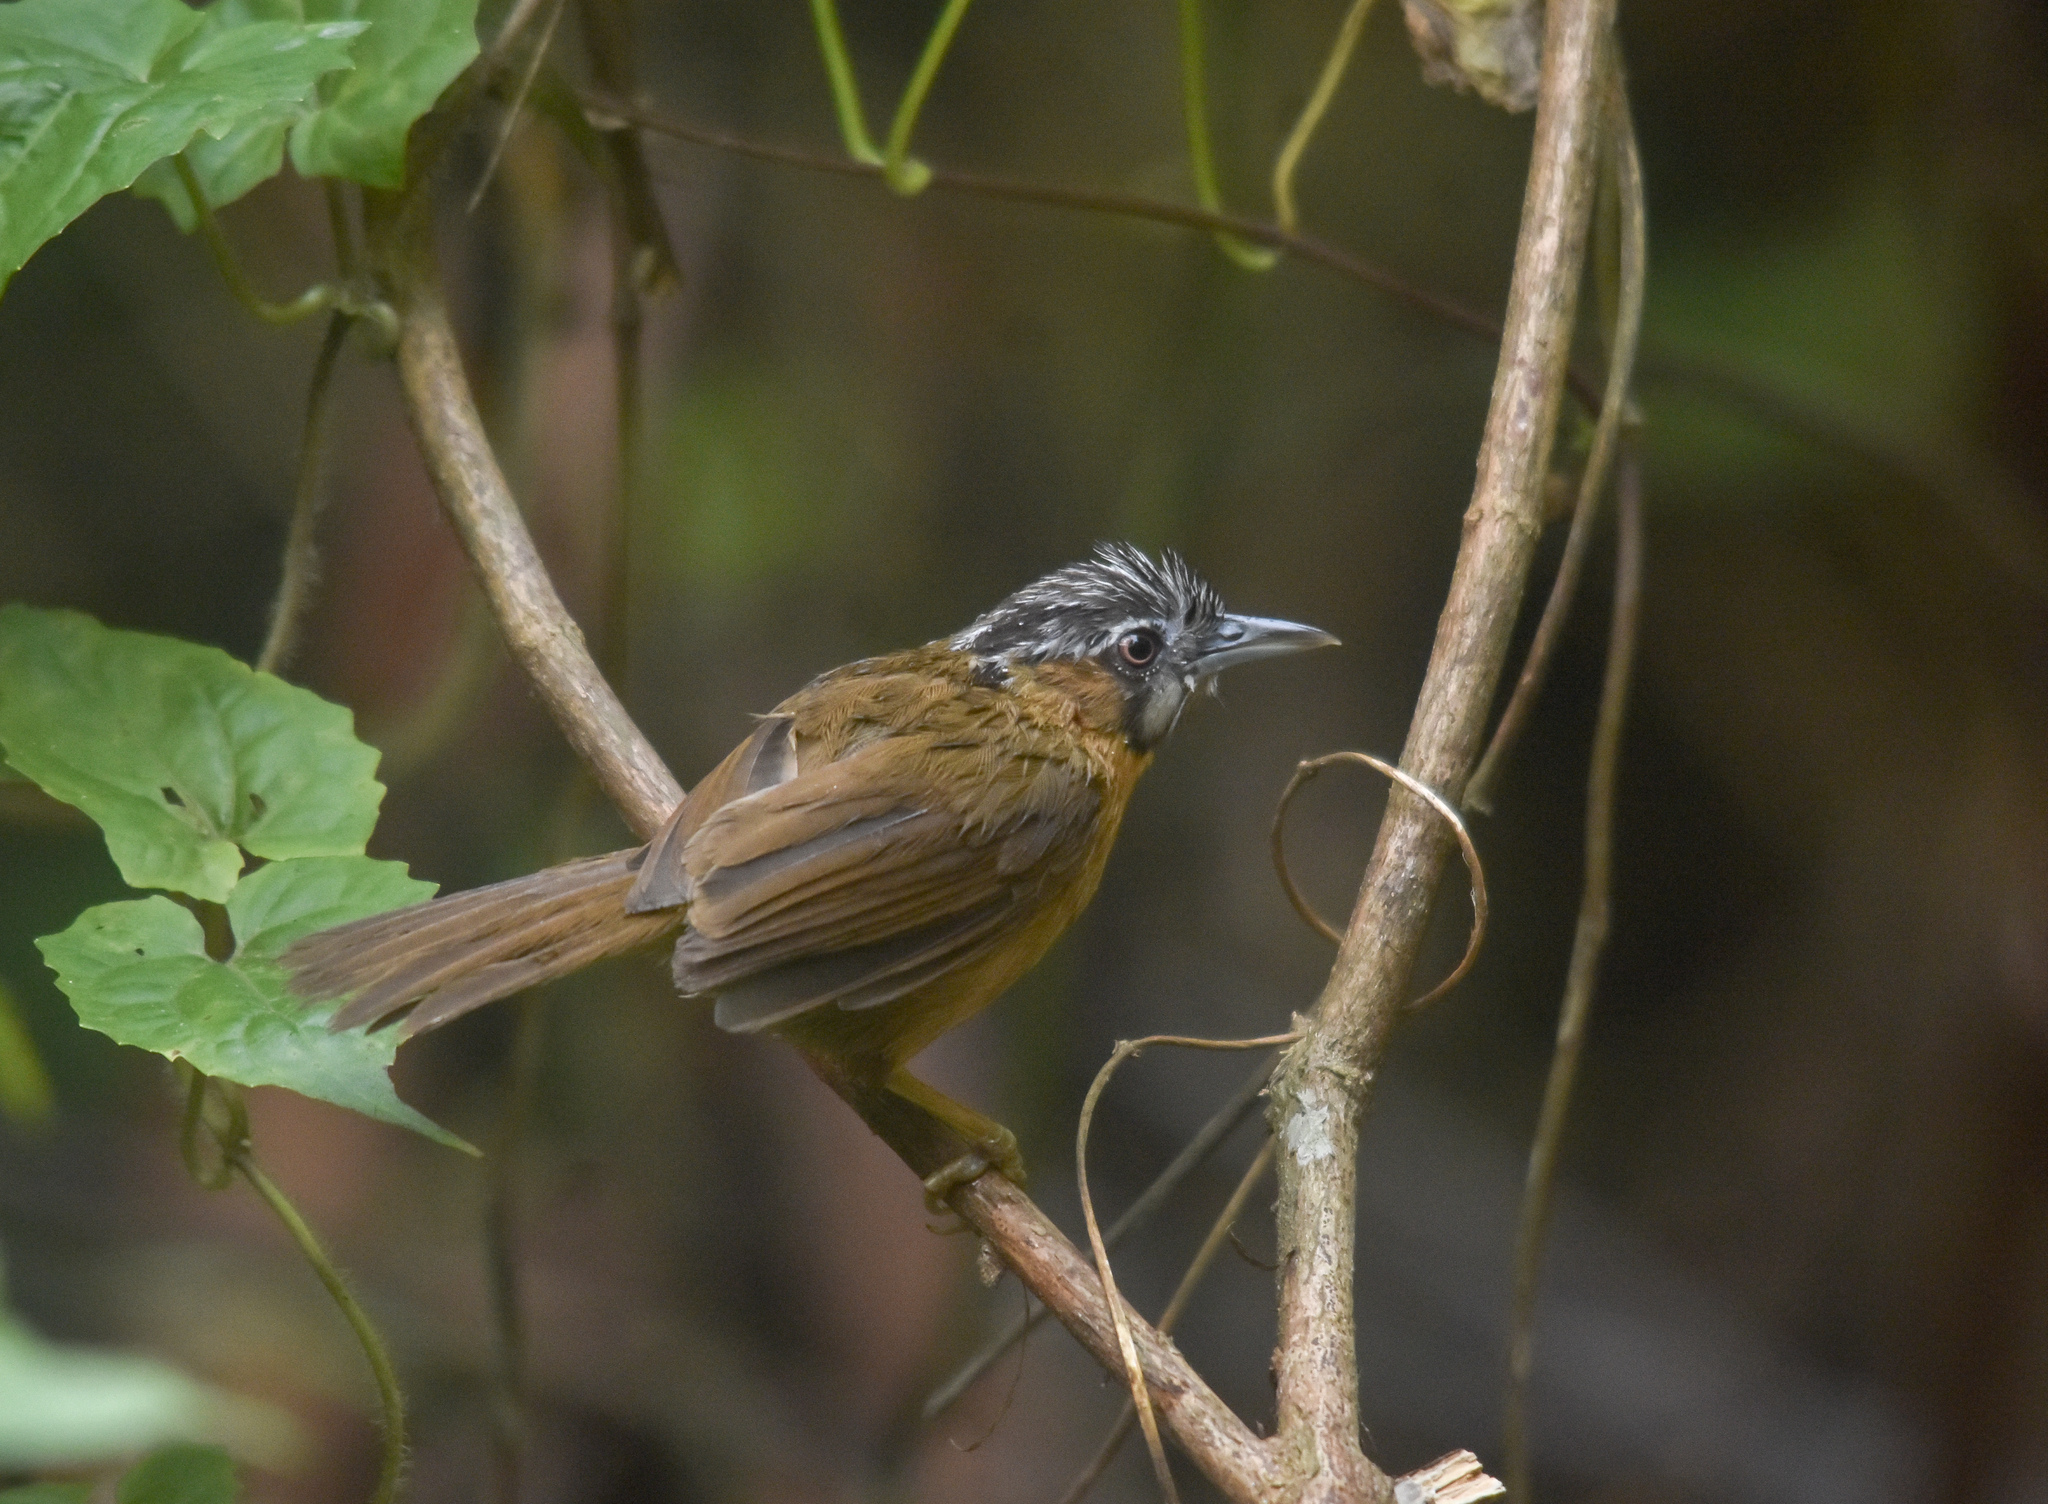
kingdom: Animalia
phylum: Chordata
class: Aves
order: Passeriformes
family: Timaliidae
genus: Stachyris
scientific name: Stachyris nigriceps
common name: Grey-throated babbler
